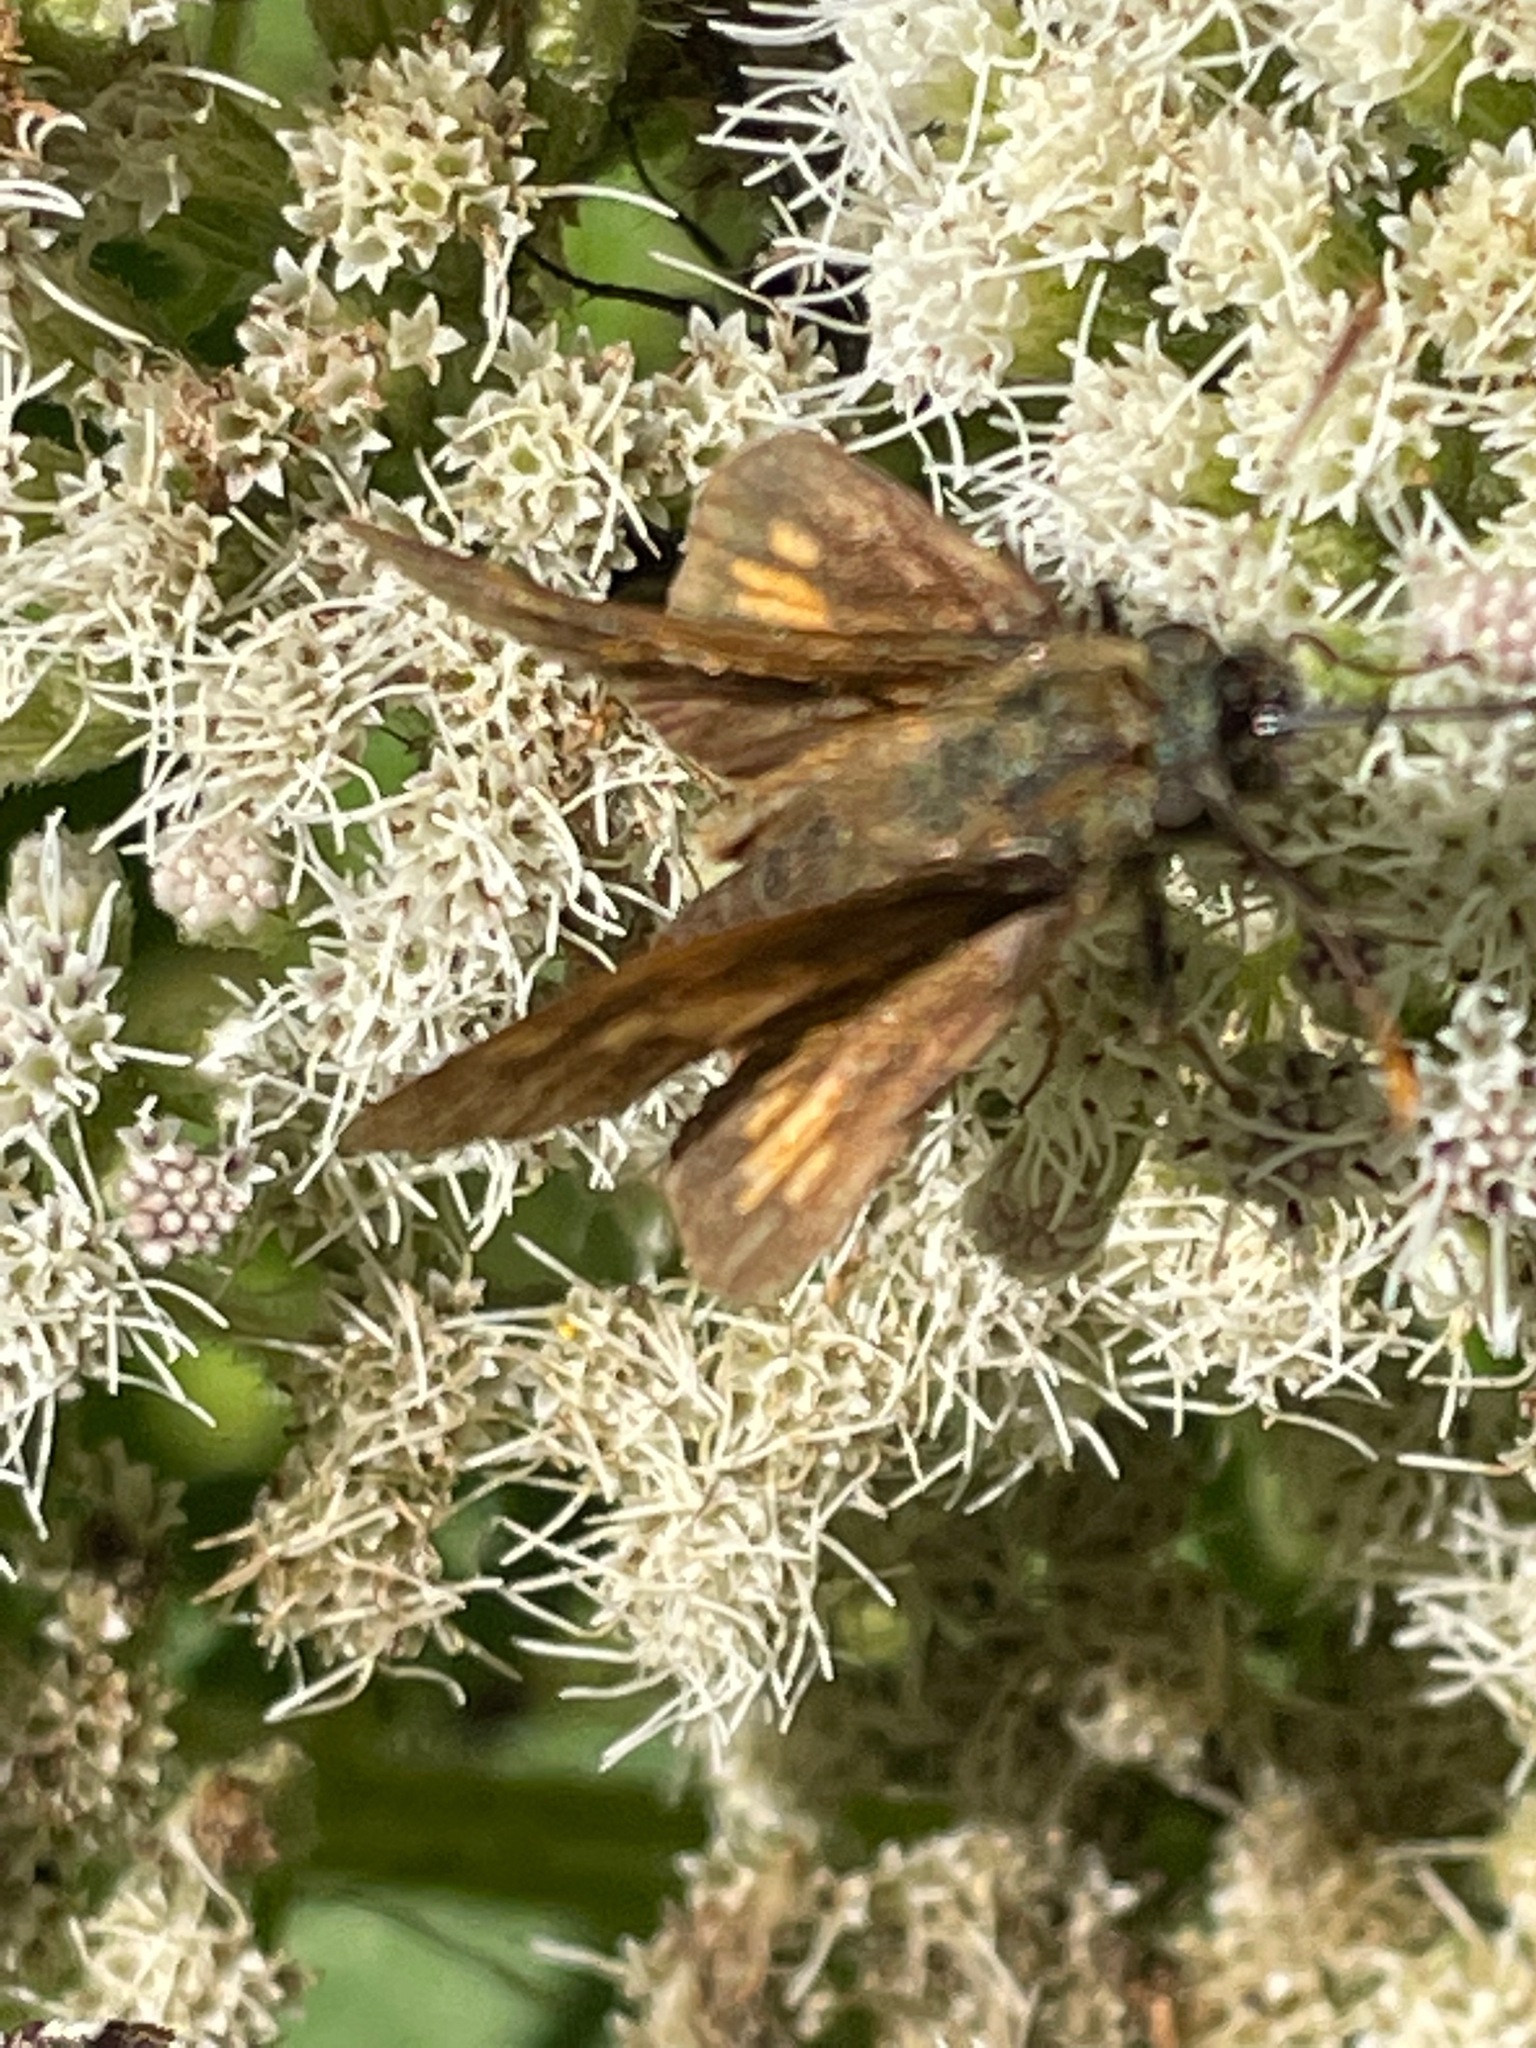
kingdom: Animalia
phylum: Arthropoda
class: Insecta
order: Lepidoptera
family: Hesperiidae
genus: Polites
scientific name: Polites coras
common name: Peck's skipper
